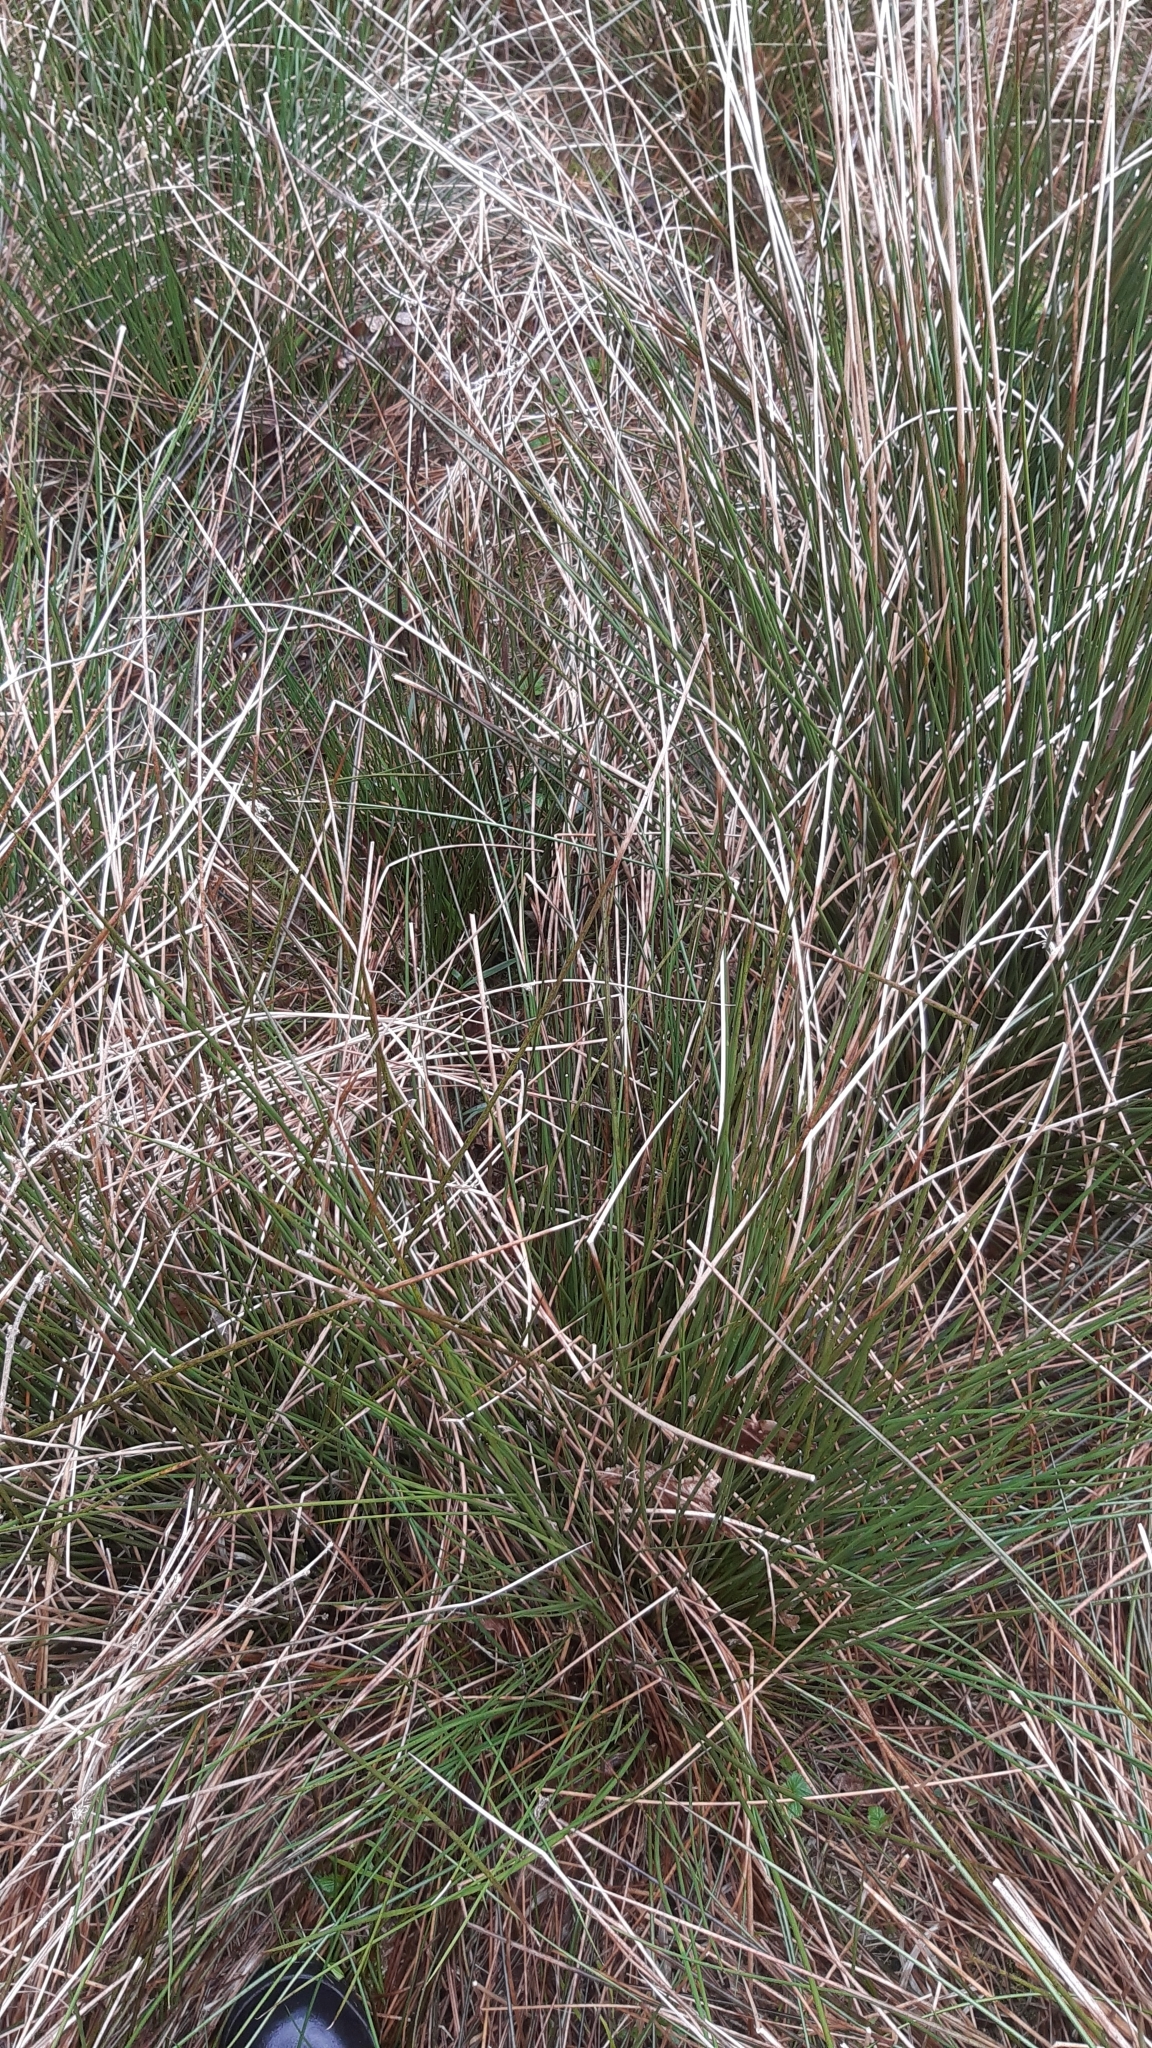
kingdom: Plantae
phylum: Tracheophyta
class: Liliopsida
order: Poales
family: Juncaceae
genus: Juncus
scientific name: Juncus effusus
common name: Soft rush
